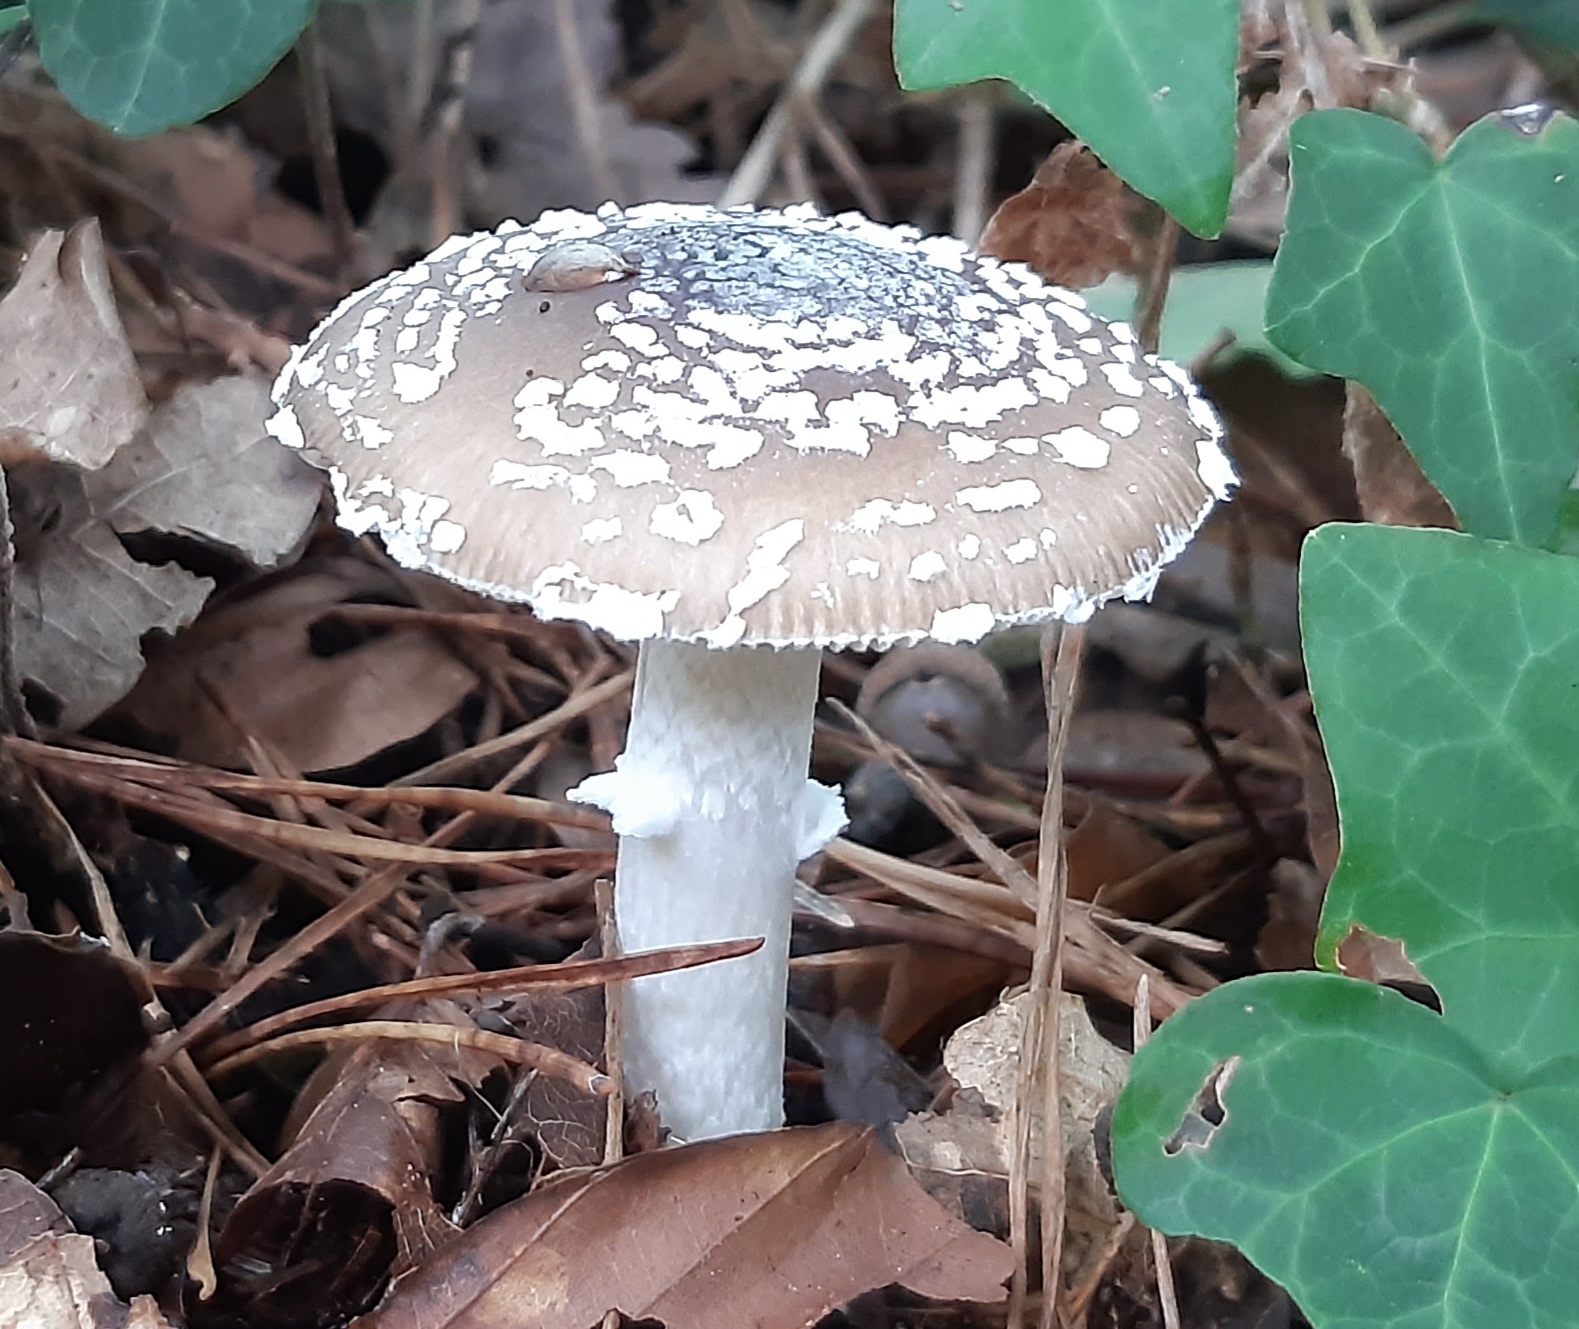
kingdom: Fungi
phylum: Basidiomycota
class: Agaricomycetes
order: Agaricales
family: Amanitaceae
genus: Amanita
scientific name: Amanita pantherina
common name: Panthercap
